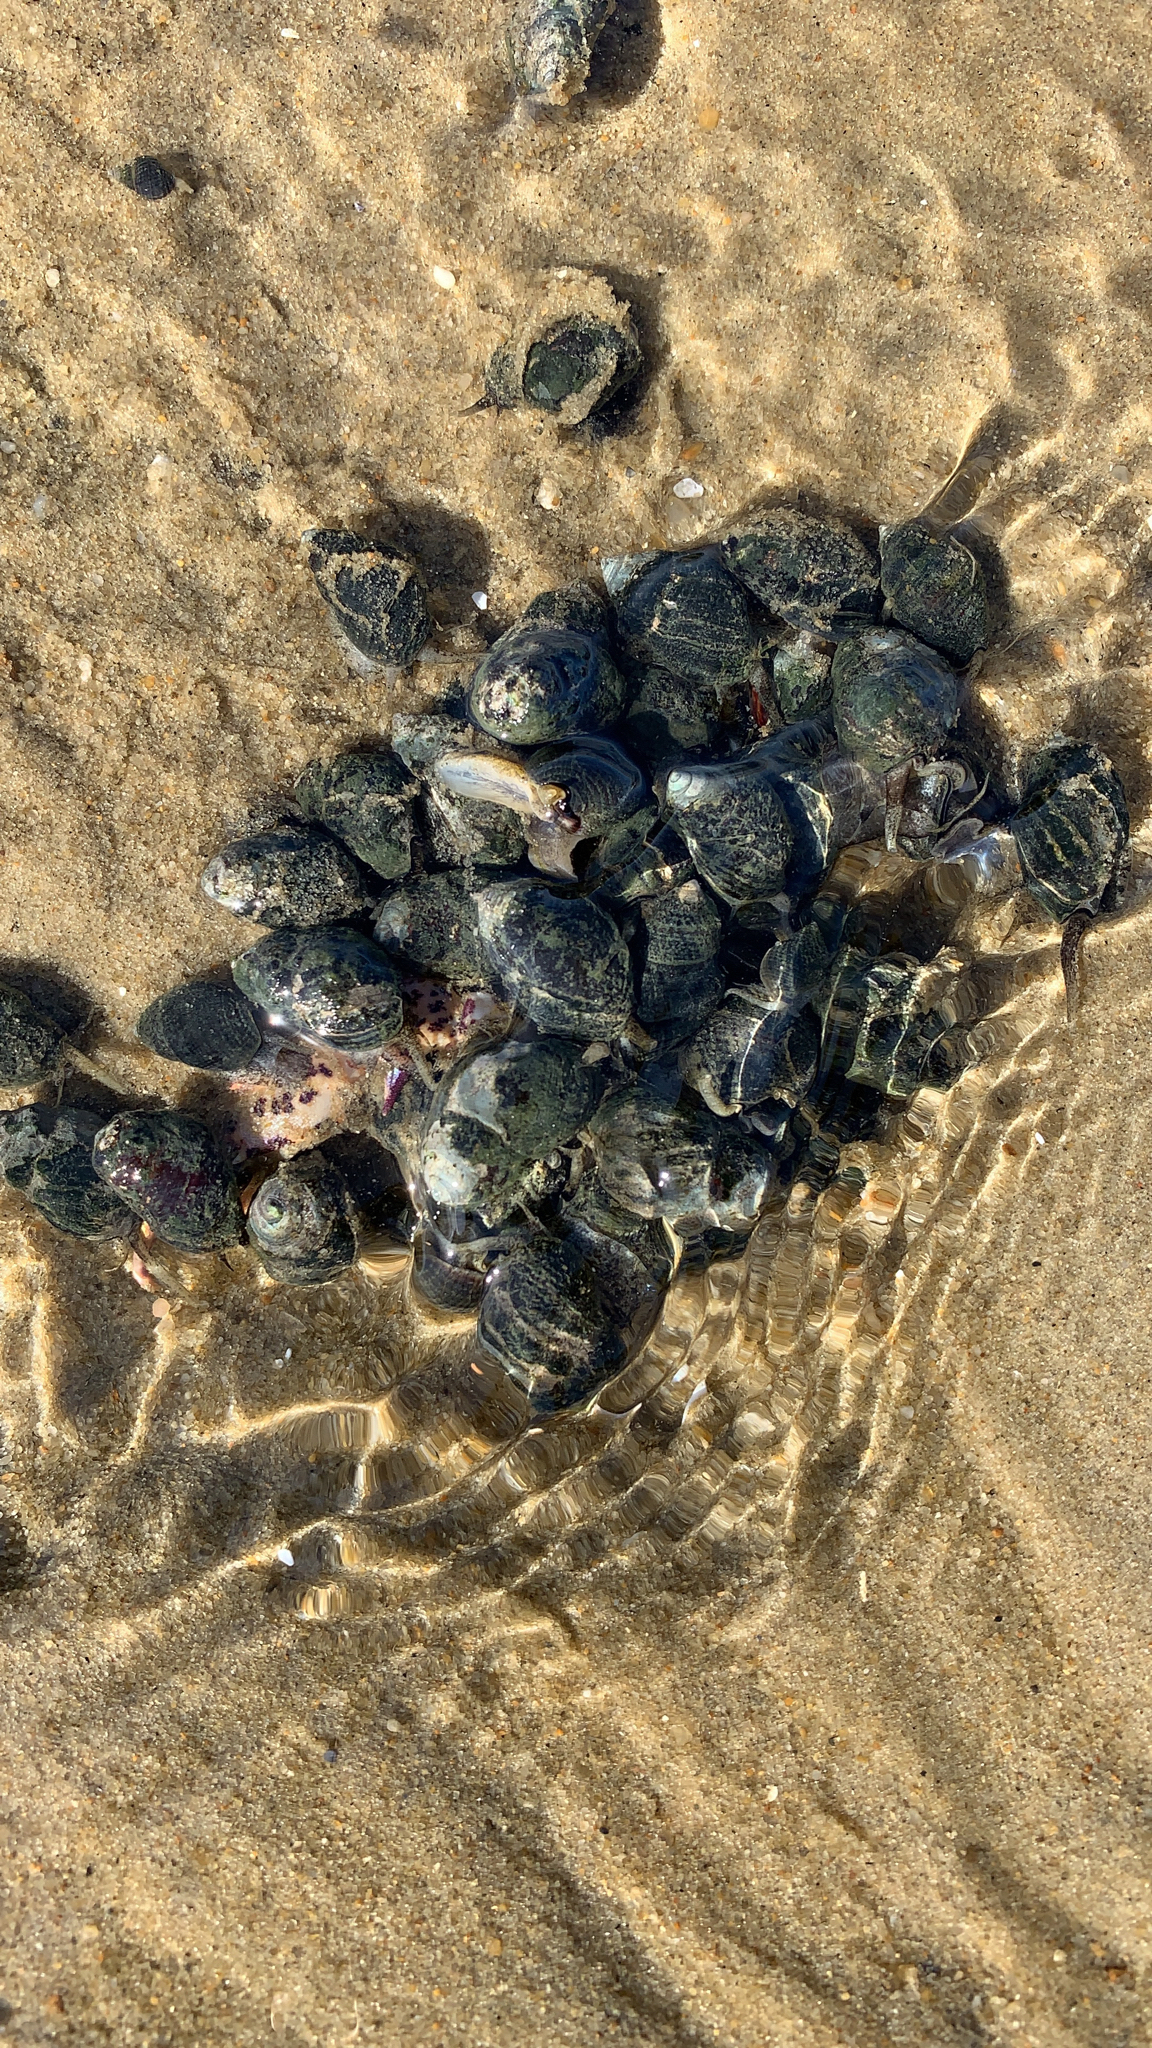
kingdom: Animalia
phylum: Mollusca
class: Gastropoda
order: Neogastropoda
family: Nassariidae
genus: Ilyanassa
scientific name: Ilyanassa obsoleta
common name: Eastern mudsnail
